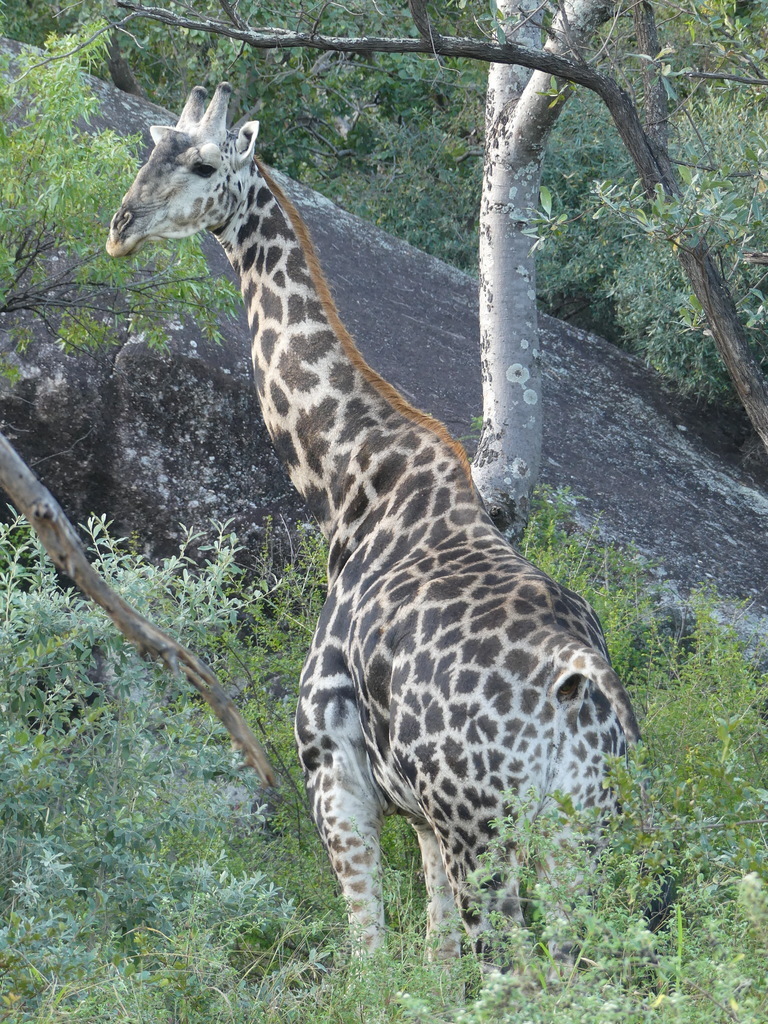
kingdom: Animalia
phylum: Chordata
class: Mammalia
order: Artiodactyla
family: Giraffidae
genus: Giraffa
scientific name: Giraffa giraffa
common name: Southern giraffe
